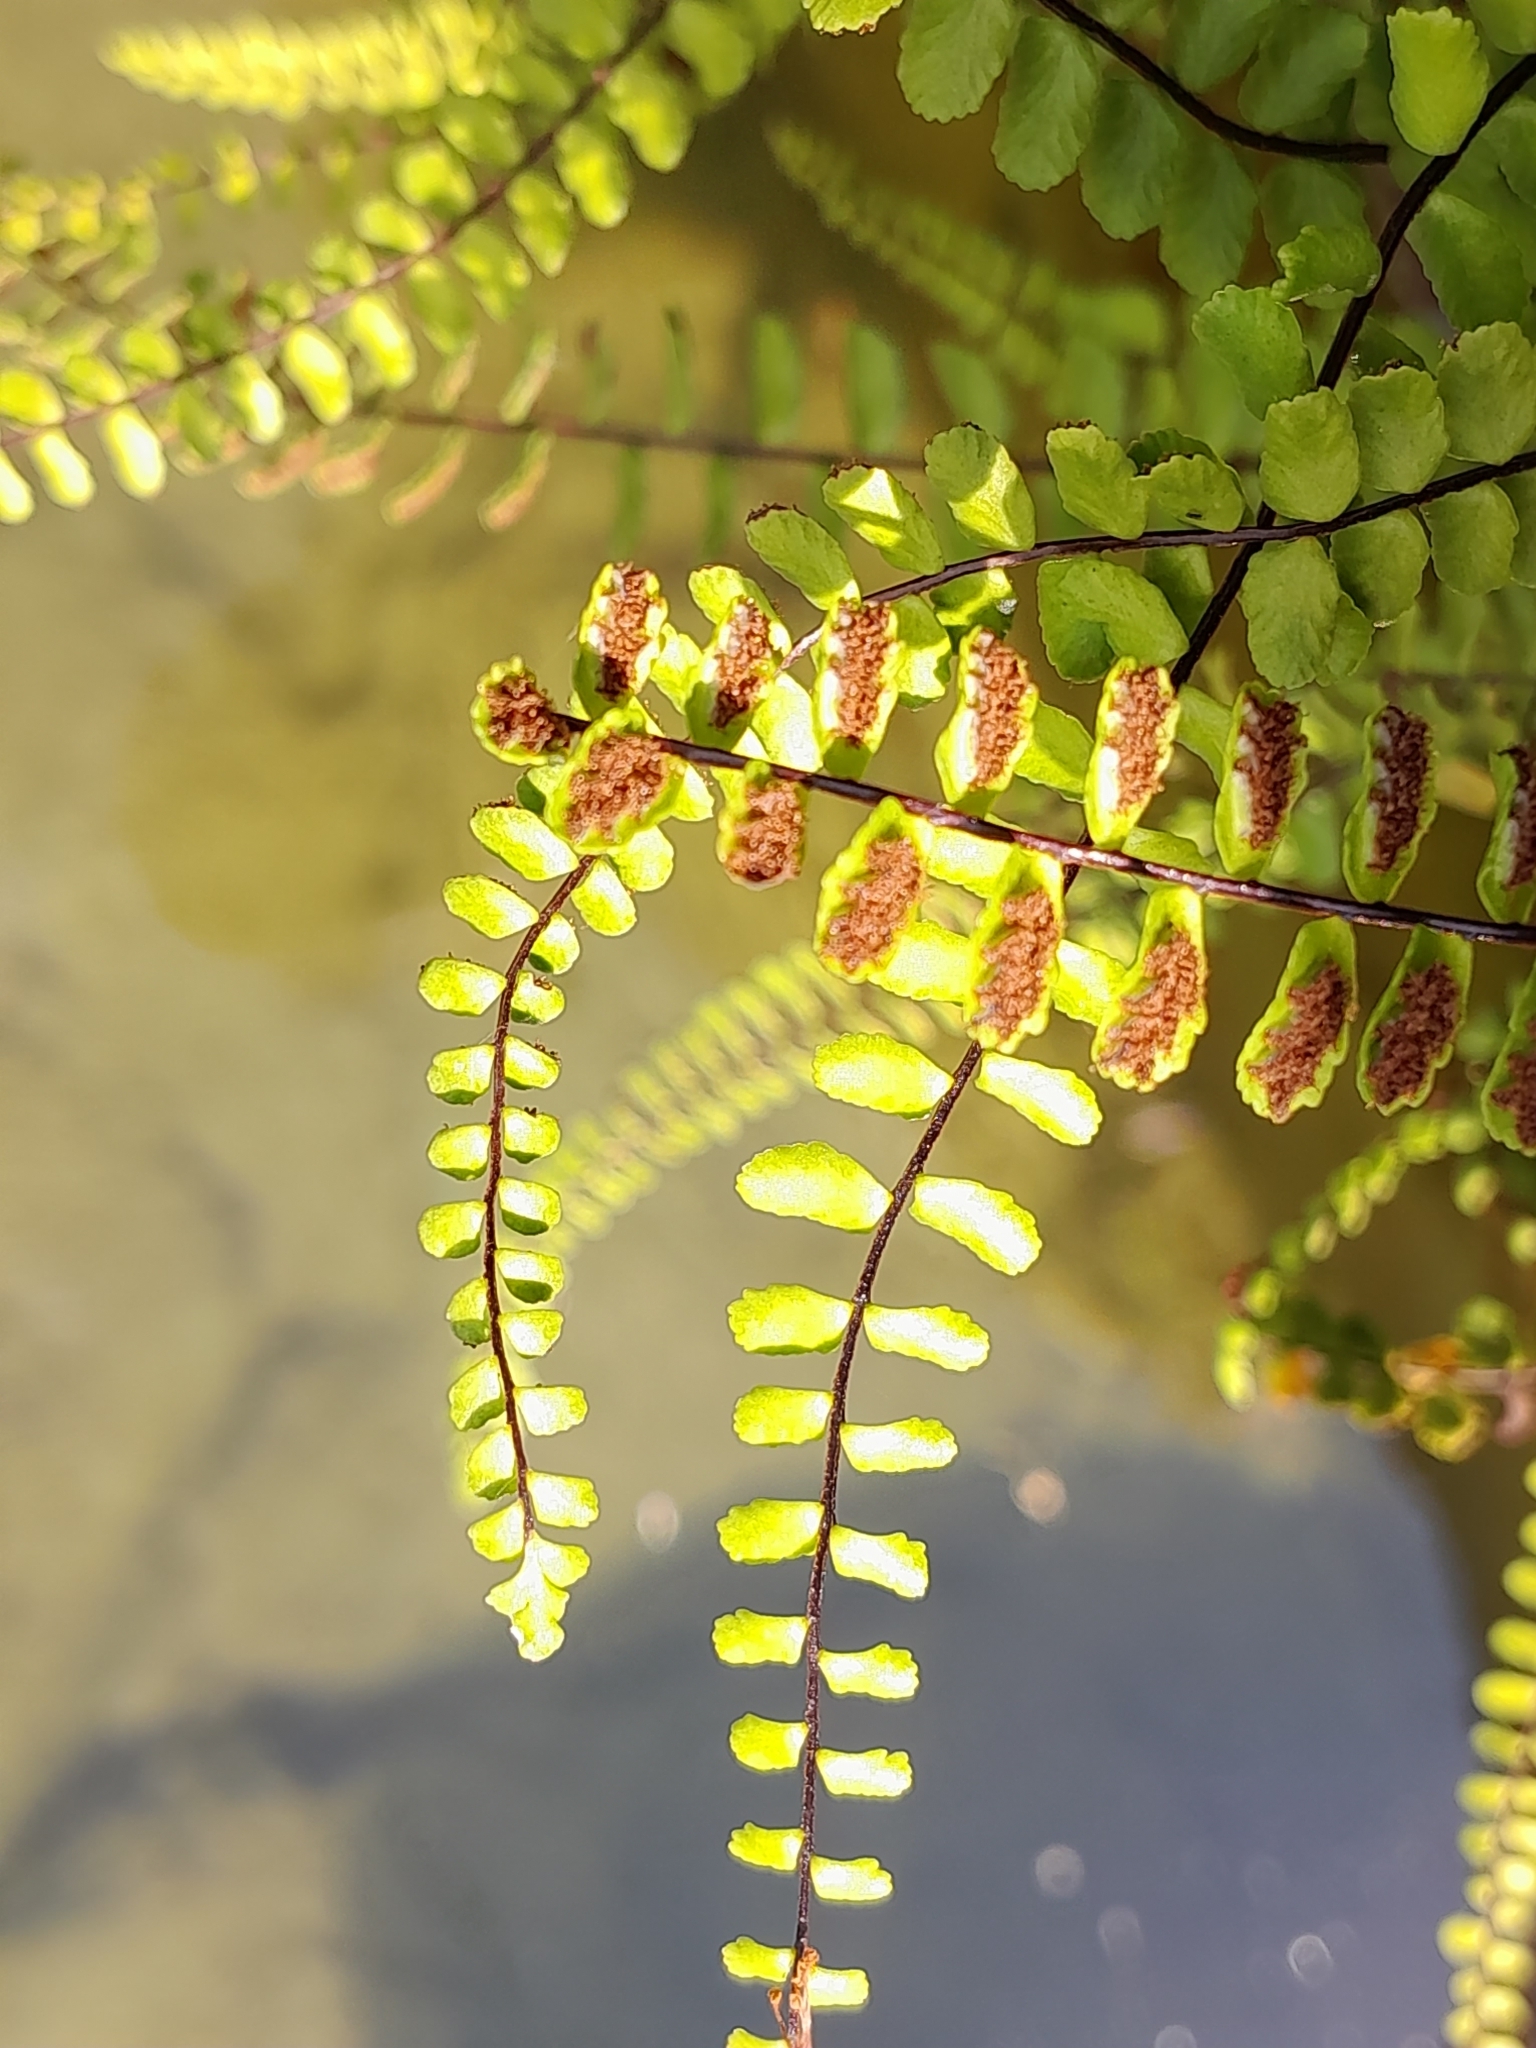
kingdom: Plantae
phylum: Tracheophyta
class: Polypodiopsida
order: Polypodiales
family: Aspleniaceae
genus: Asplenium
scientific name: Asplenium trichomanes
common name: Maidenhair spleenwort
